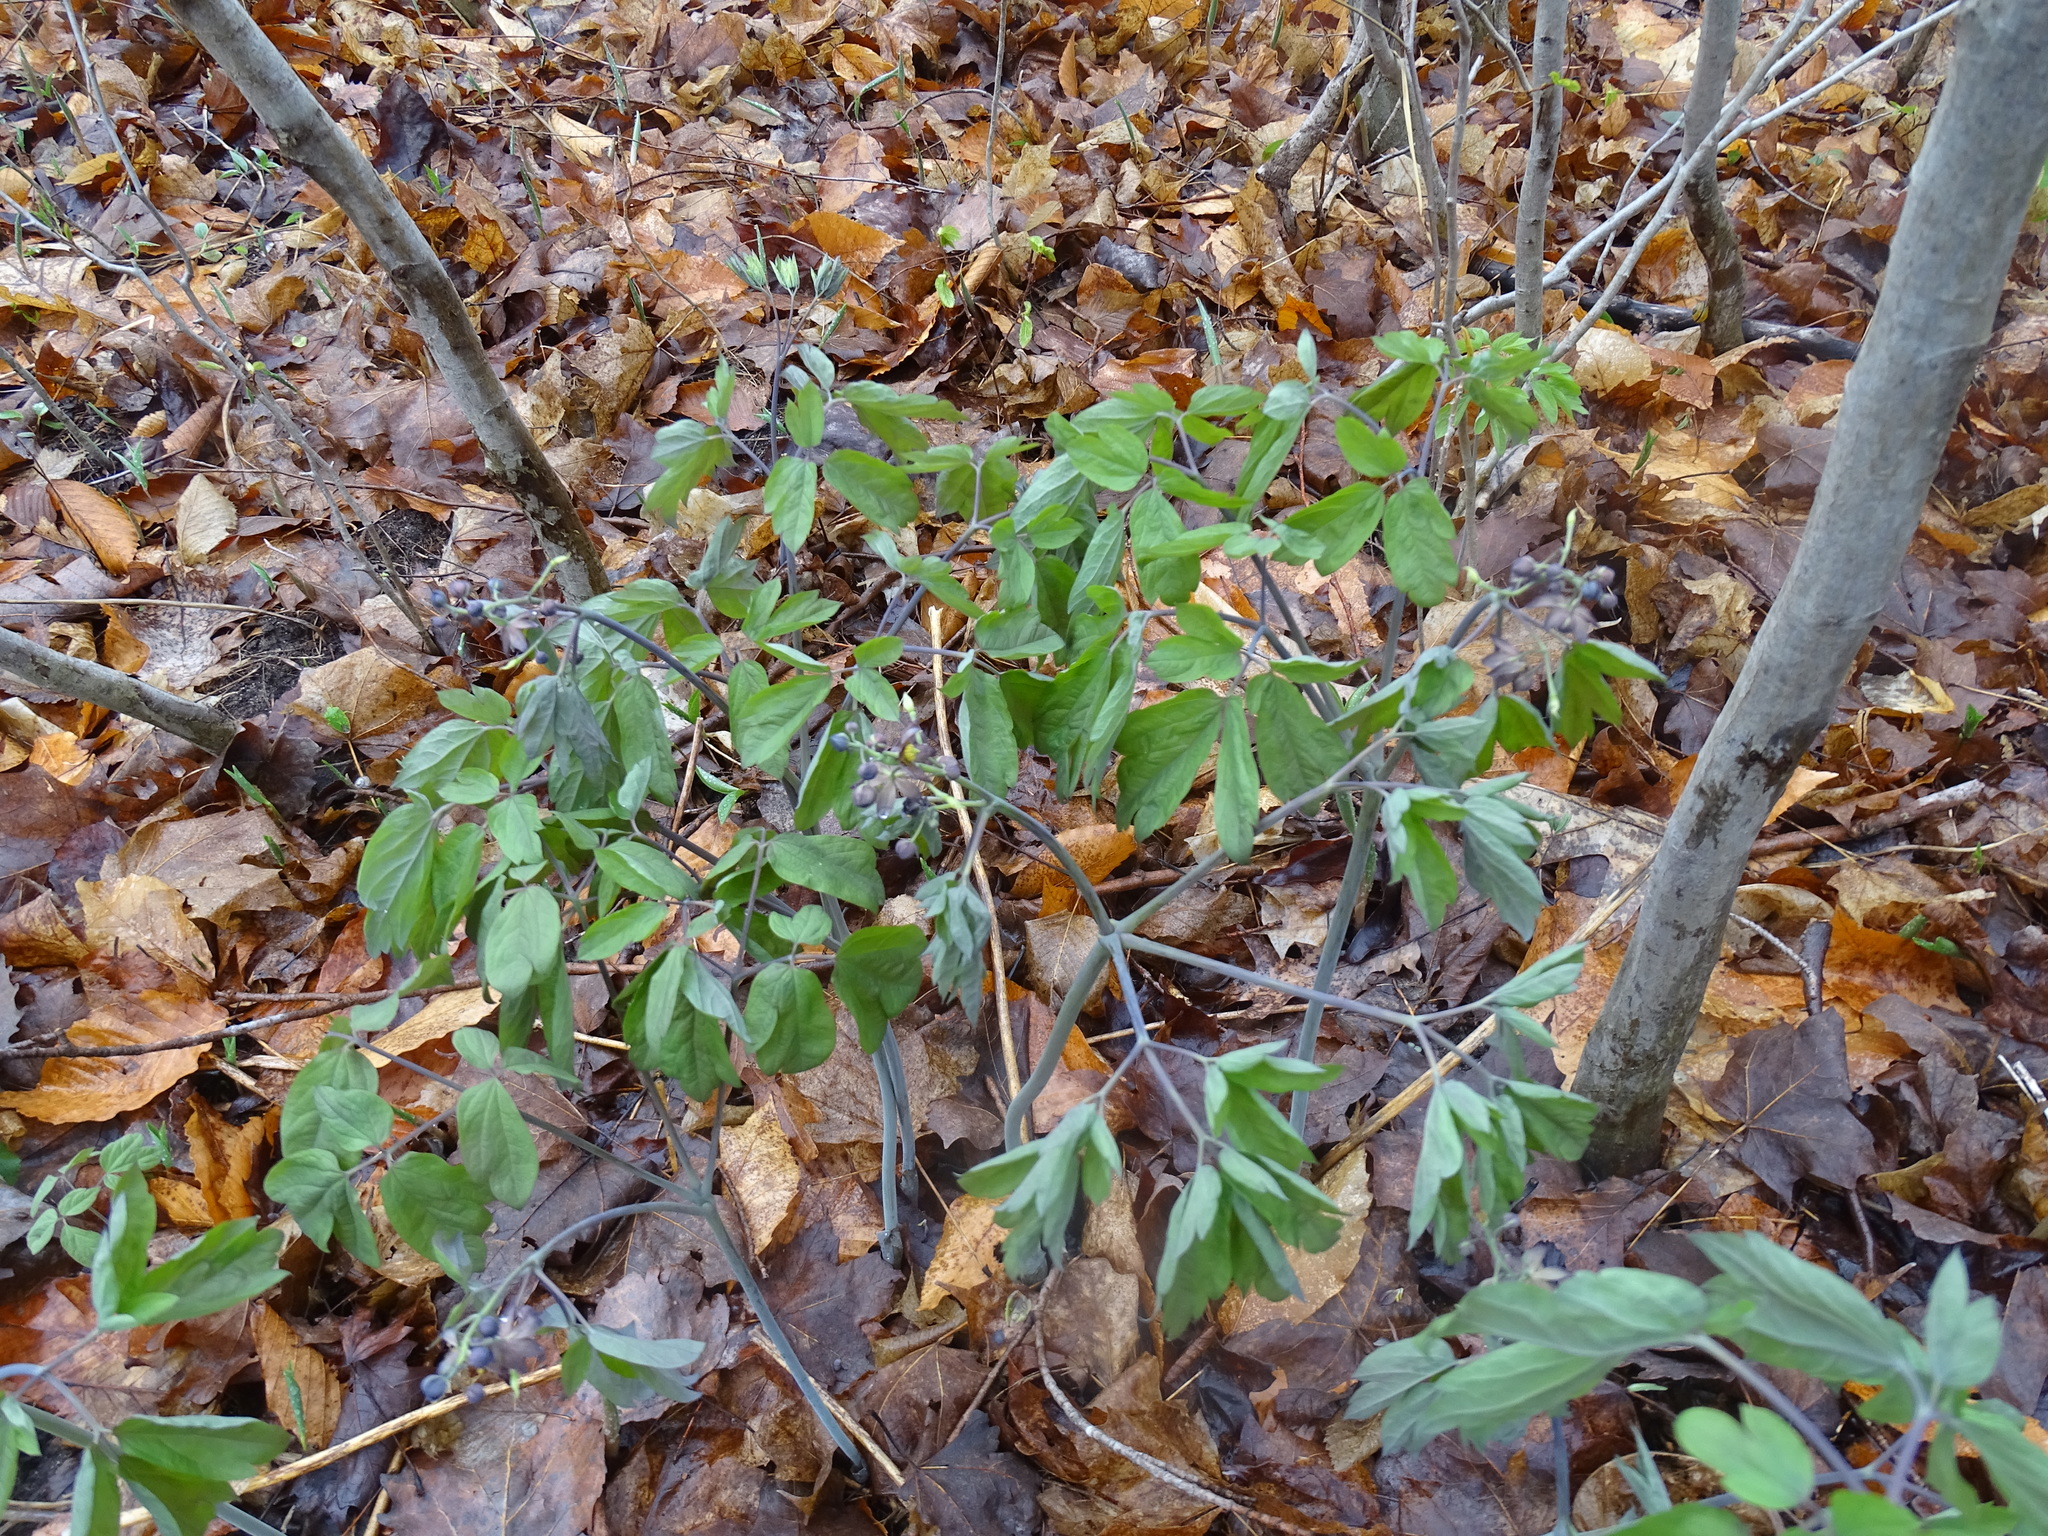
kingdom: Plantae
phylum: Tracheophyta
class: Magnoliopsida
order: Ranunculales
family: Berberidaceae
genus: Caulophyllum
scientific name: Caulophyllum giganteum
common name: Blue cohosh
